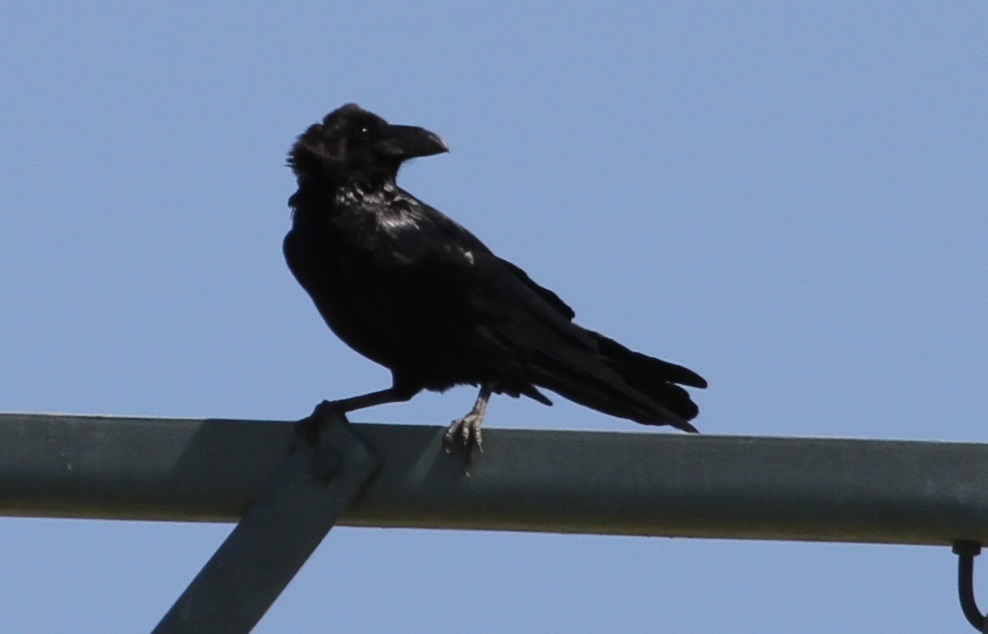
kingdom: Animalia
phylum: Chordata
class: Aves
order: Passeriformes
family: Corvidae
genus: Corvus
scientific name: Corvus corax
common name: Common raven
